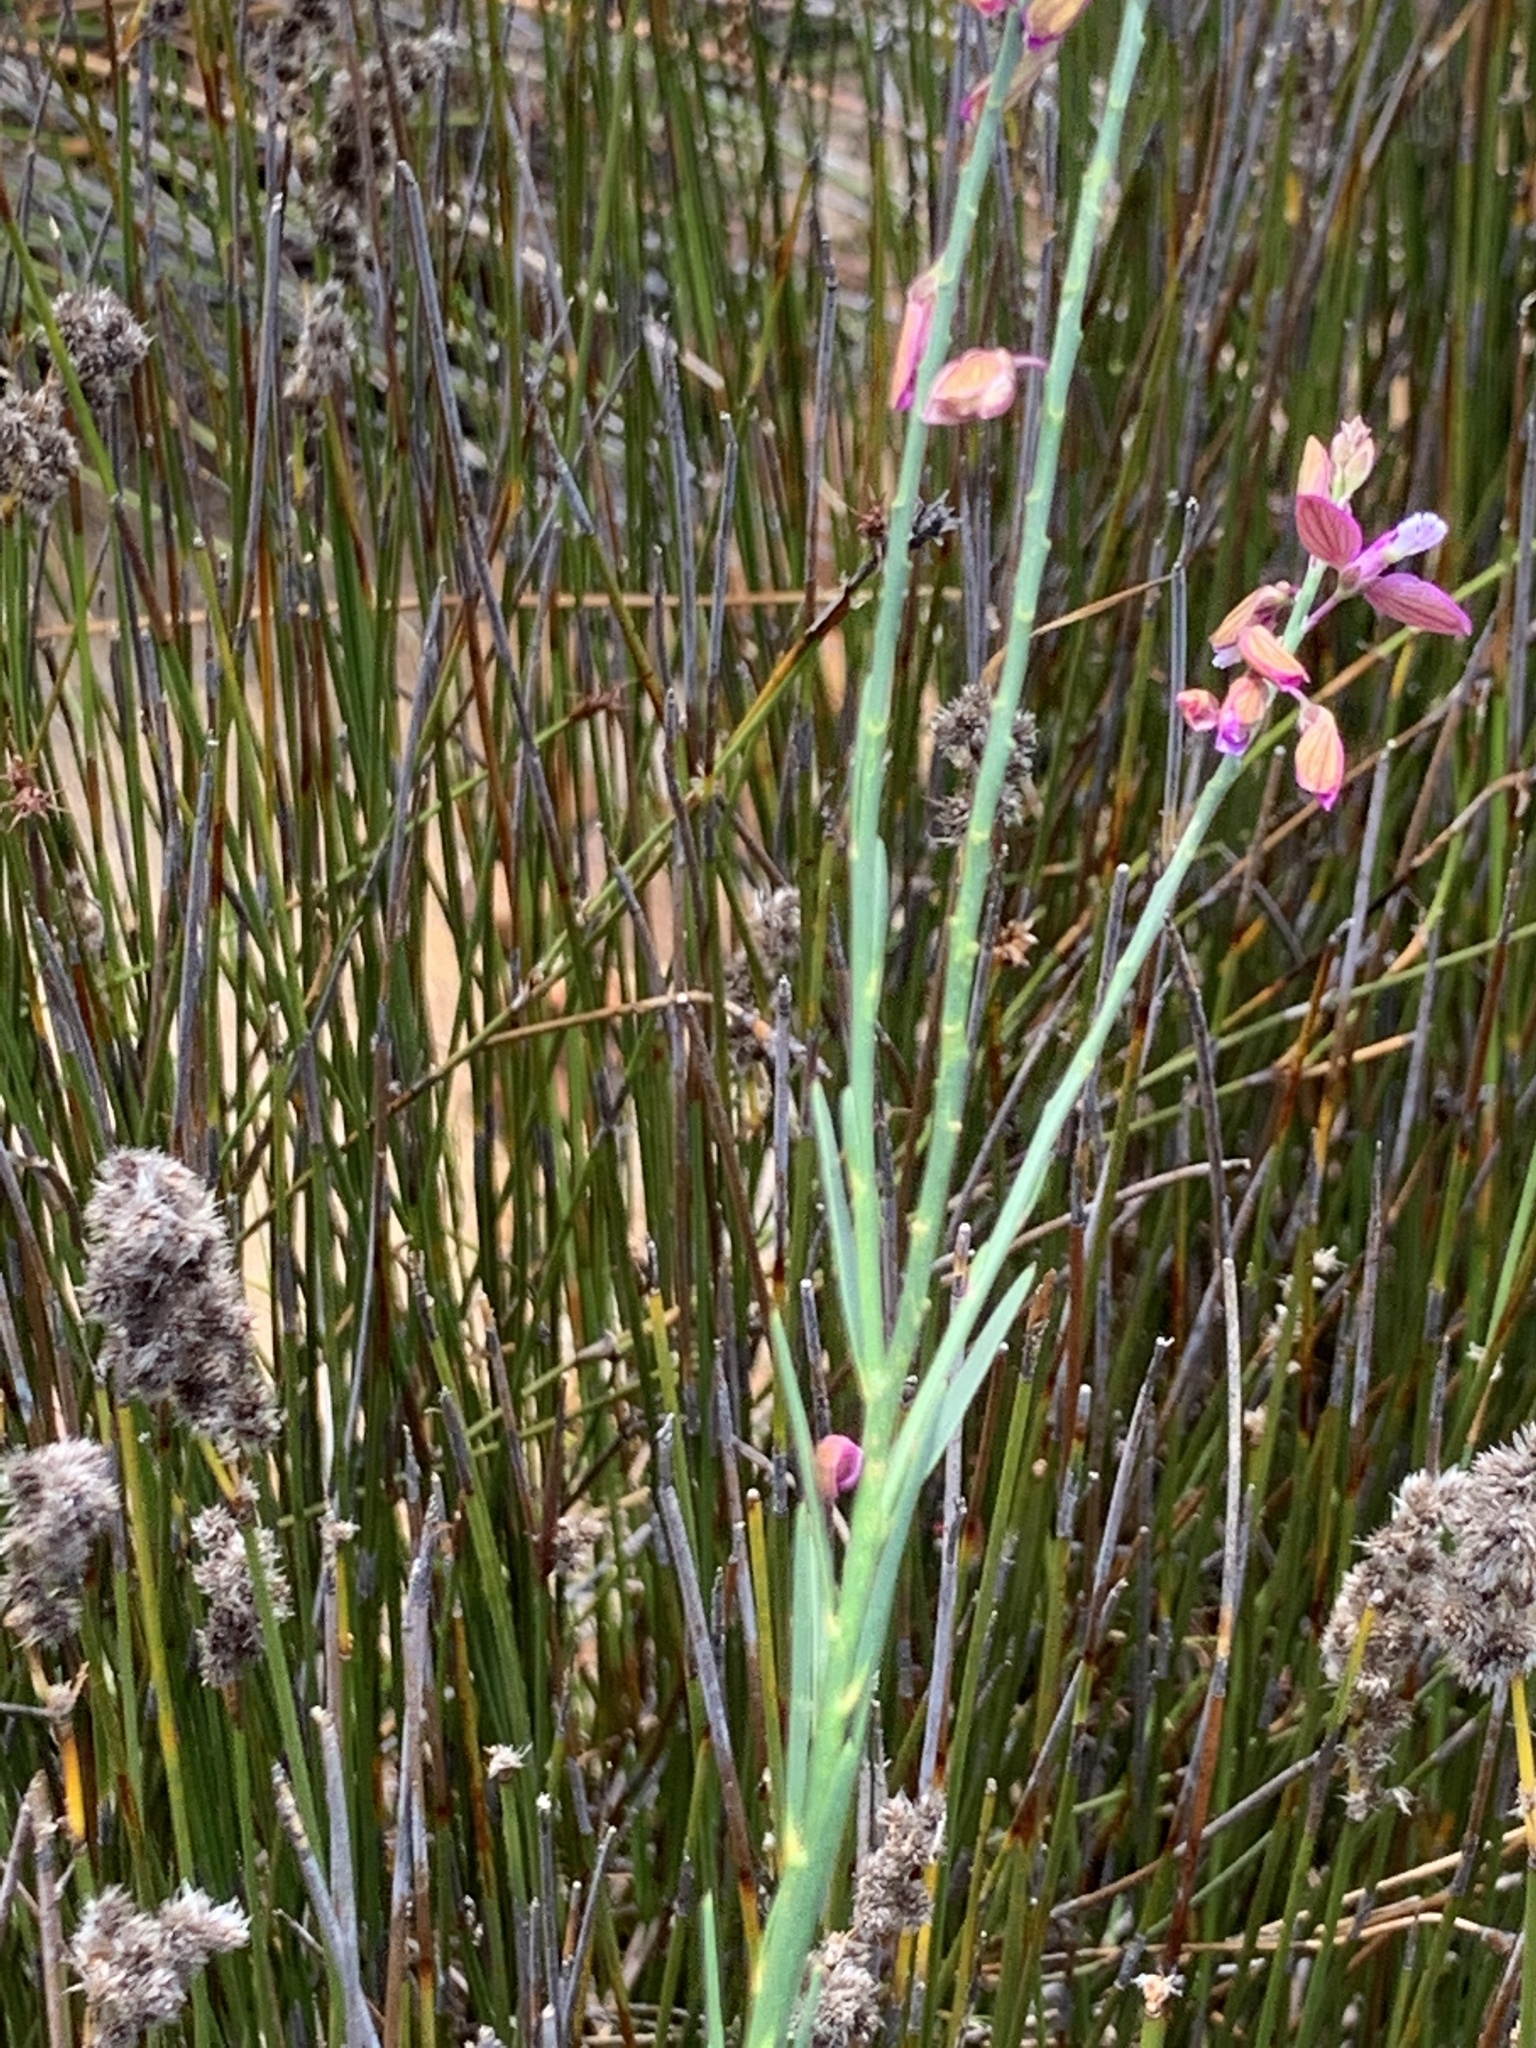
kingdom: Plantae
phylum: Tracheophyta
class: Magnoliopsida
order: Fabales
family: Polygalaceae
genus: Polygala
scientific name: Polygala garcini
